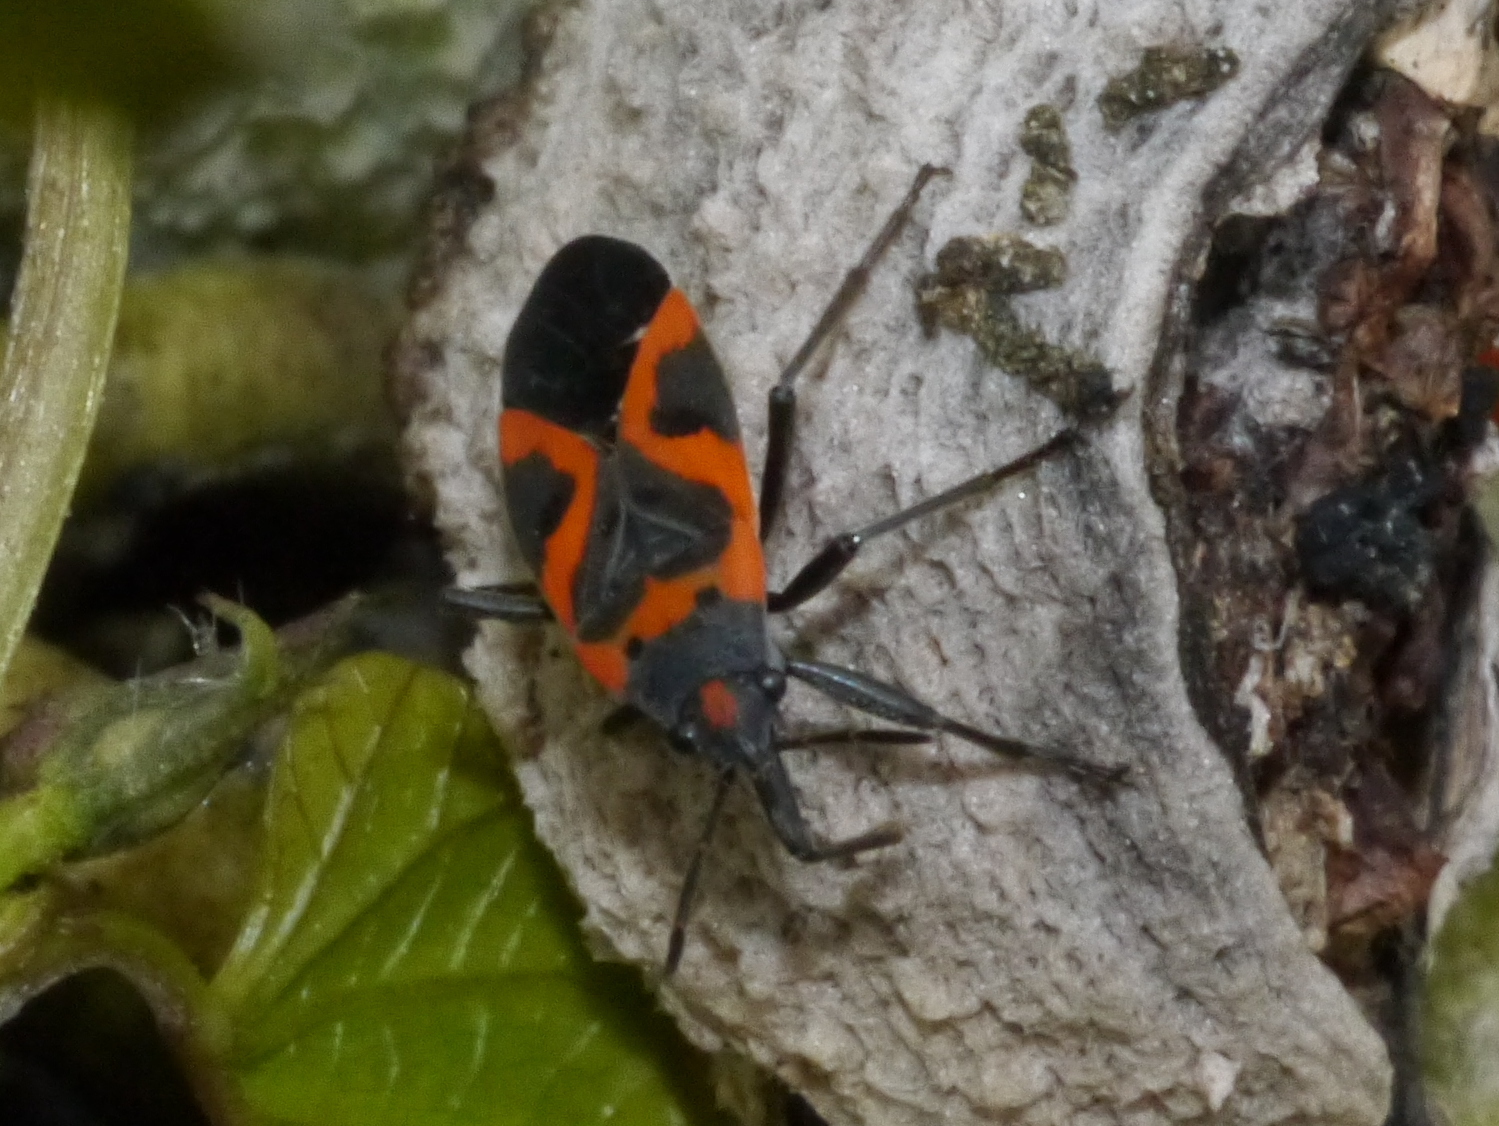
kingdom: Animalia
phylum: Arthropoda
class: Insecta
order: Hemiptera
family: Lygaeidae
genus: Lygaeus
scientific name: Lygaeus kalmii
